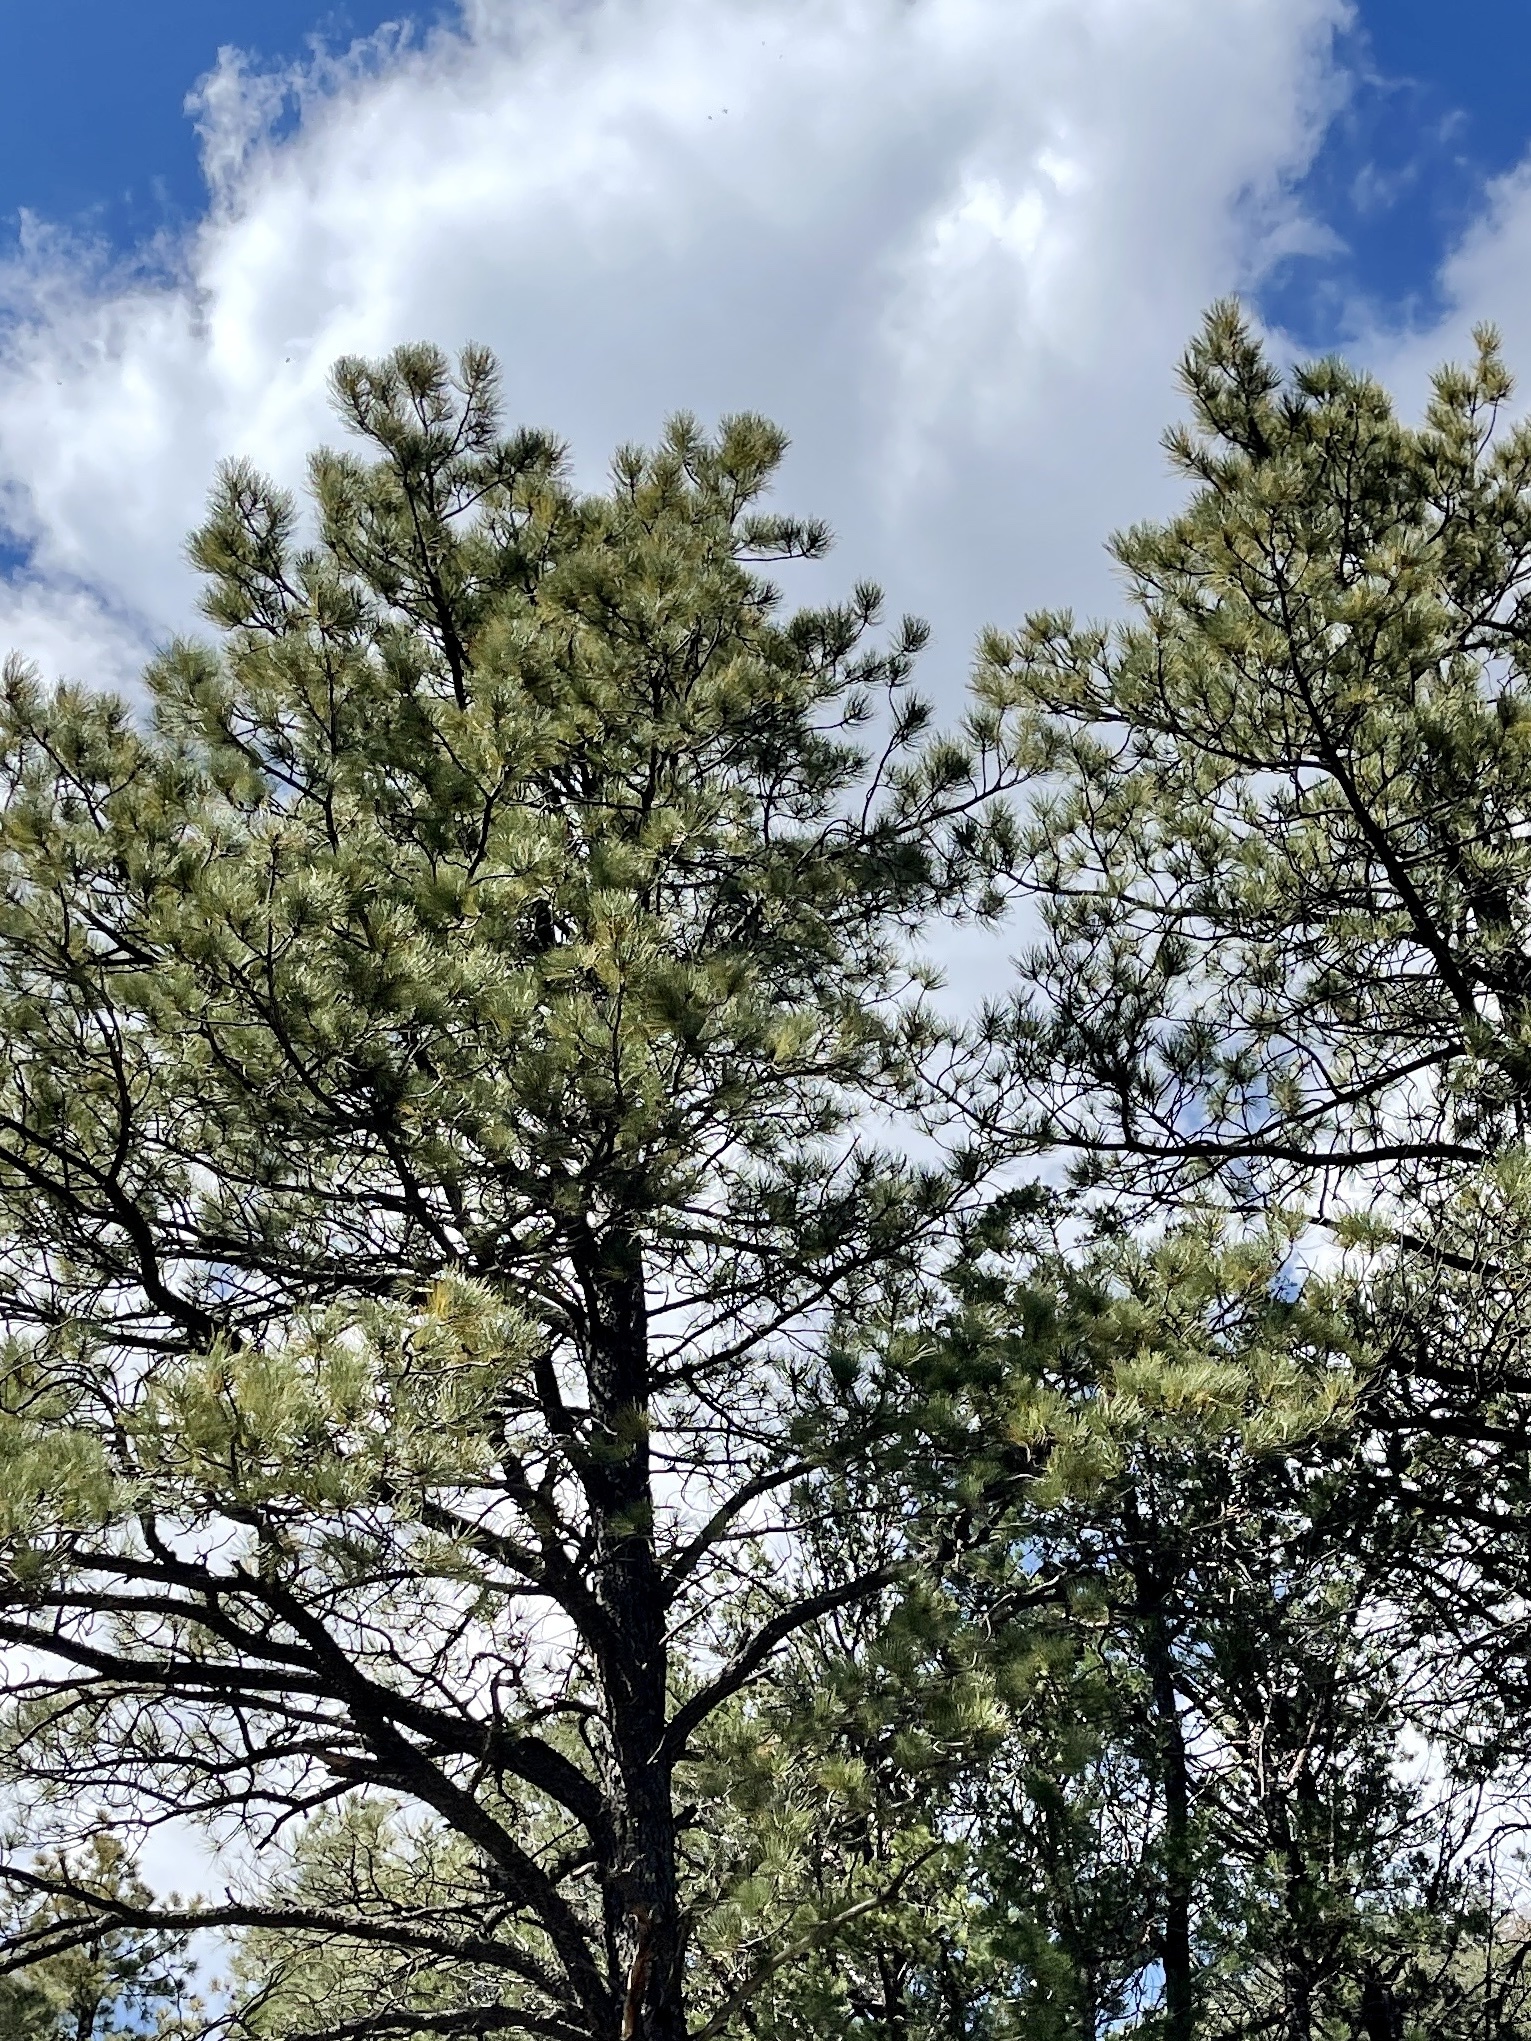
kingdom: Plantae
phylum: Tracheophyta
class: Pinopsida
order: Pinales
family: Pinaceae
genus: Pinus
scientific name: Pinus ponderosa
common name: Western yellow-pine
